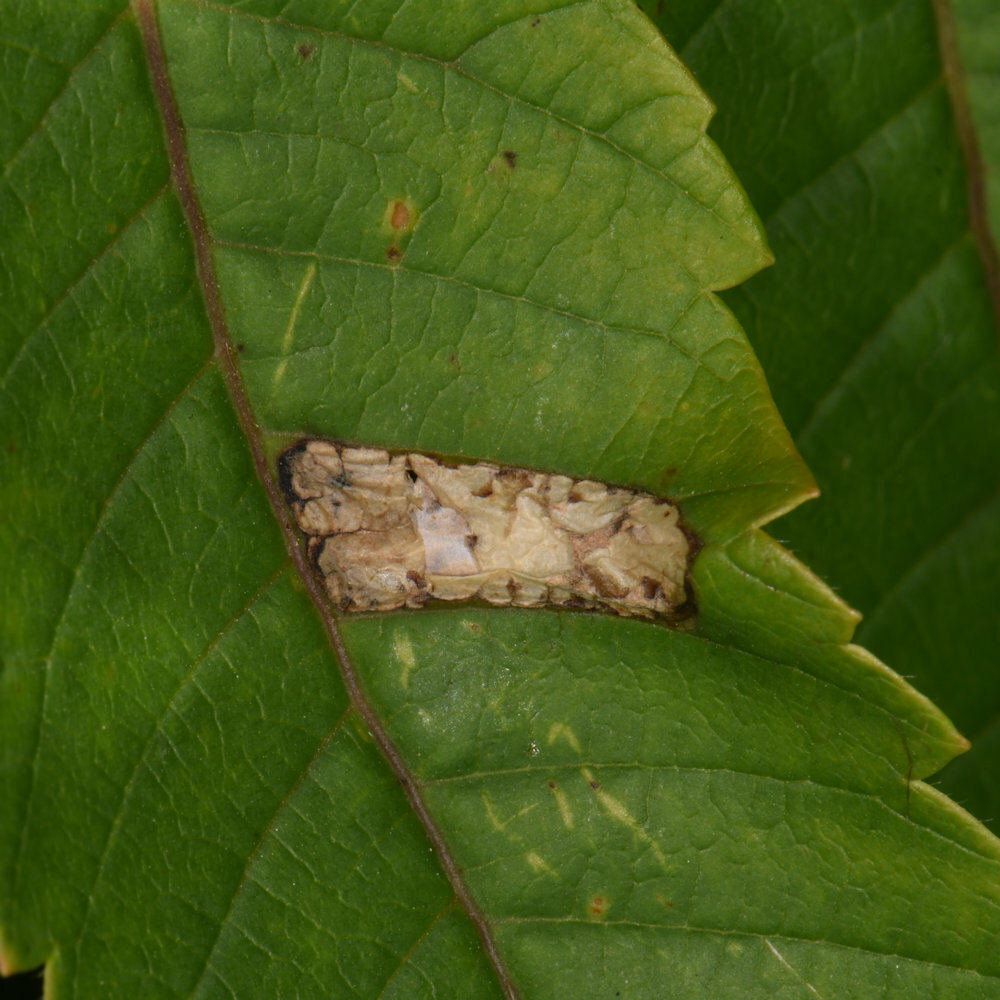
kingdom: Animalia
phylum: Arthropoda
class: Insecta
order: Lepidoptera
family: Gracillariidae
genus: Caloptilia
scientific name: Caloptilia rhoifoliella
